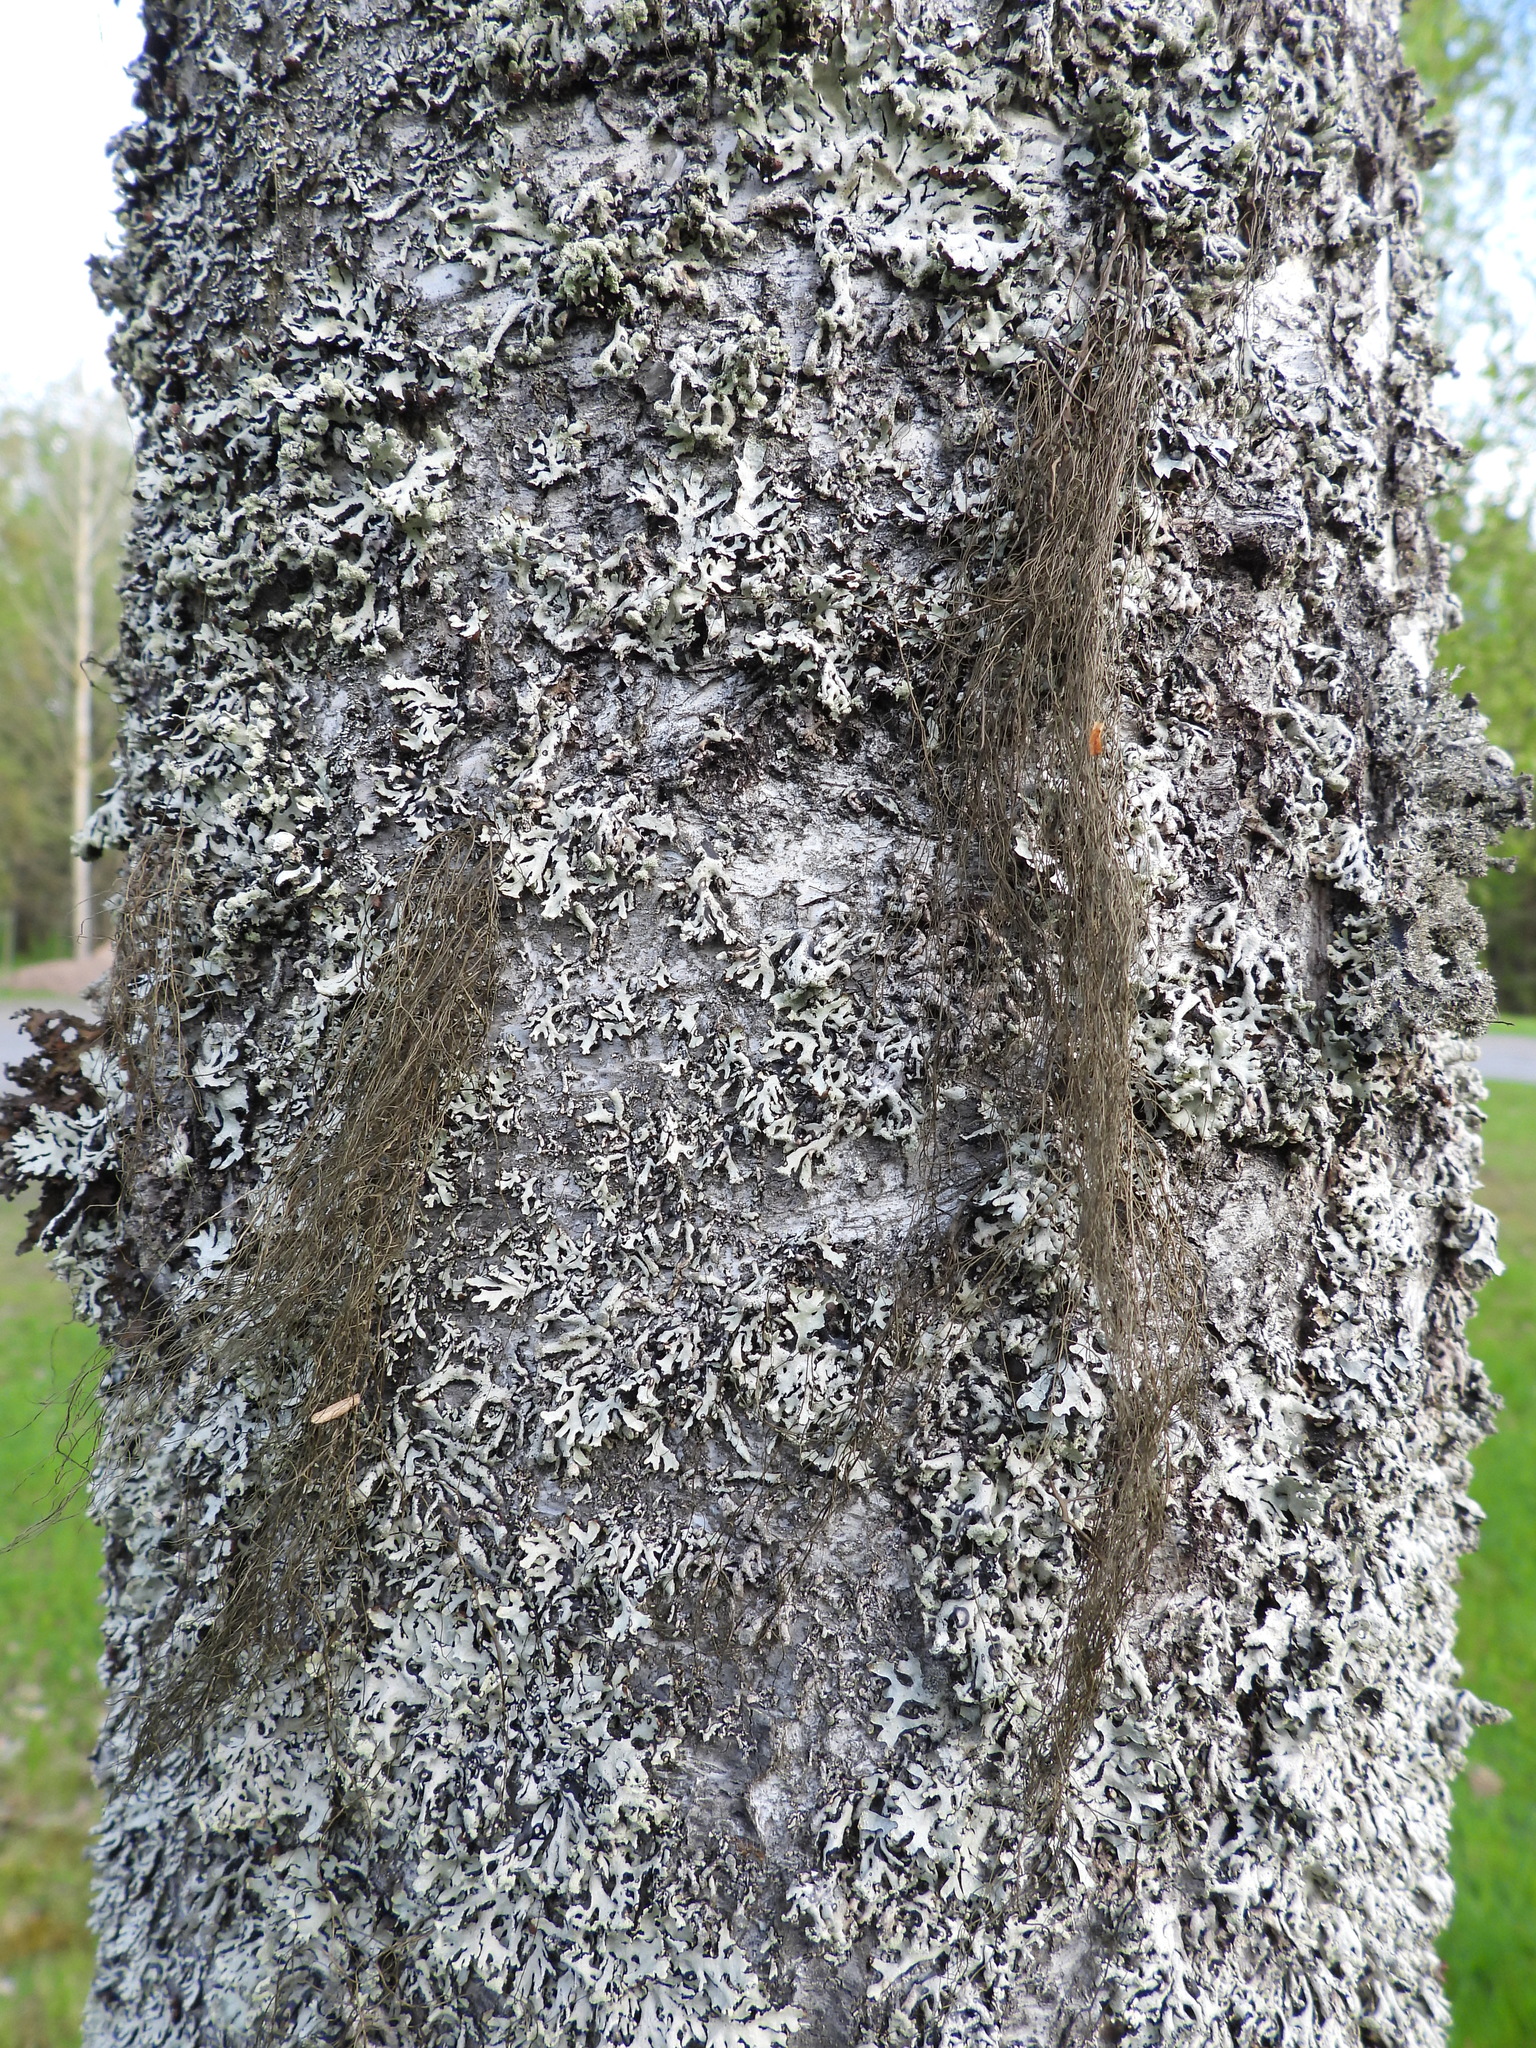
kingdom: Fungi
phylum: Ascomycota
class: Lecanoromycetes
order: Lecanorales
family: Parmeliaceae
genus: Bryoria
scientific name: Bryoria fuscescens
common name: Pale-footed horsehair lichen
